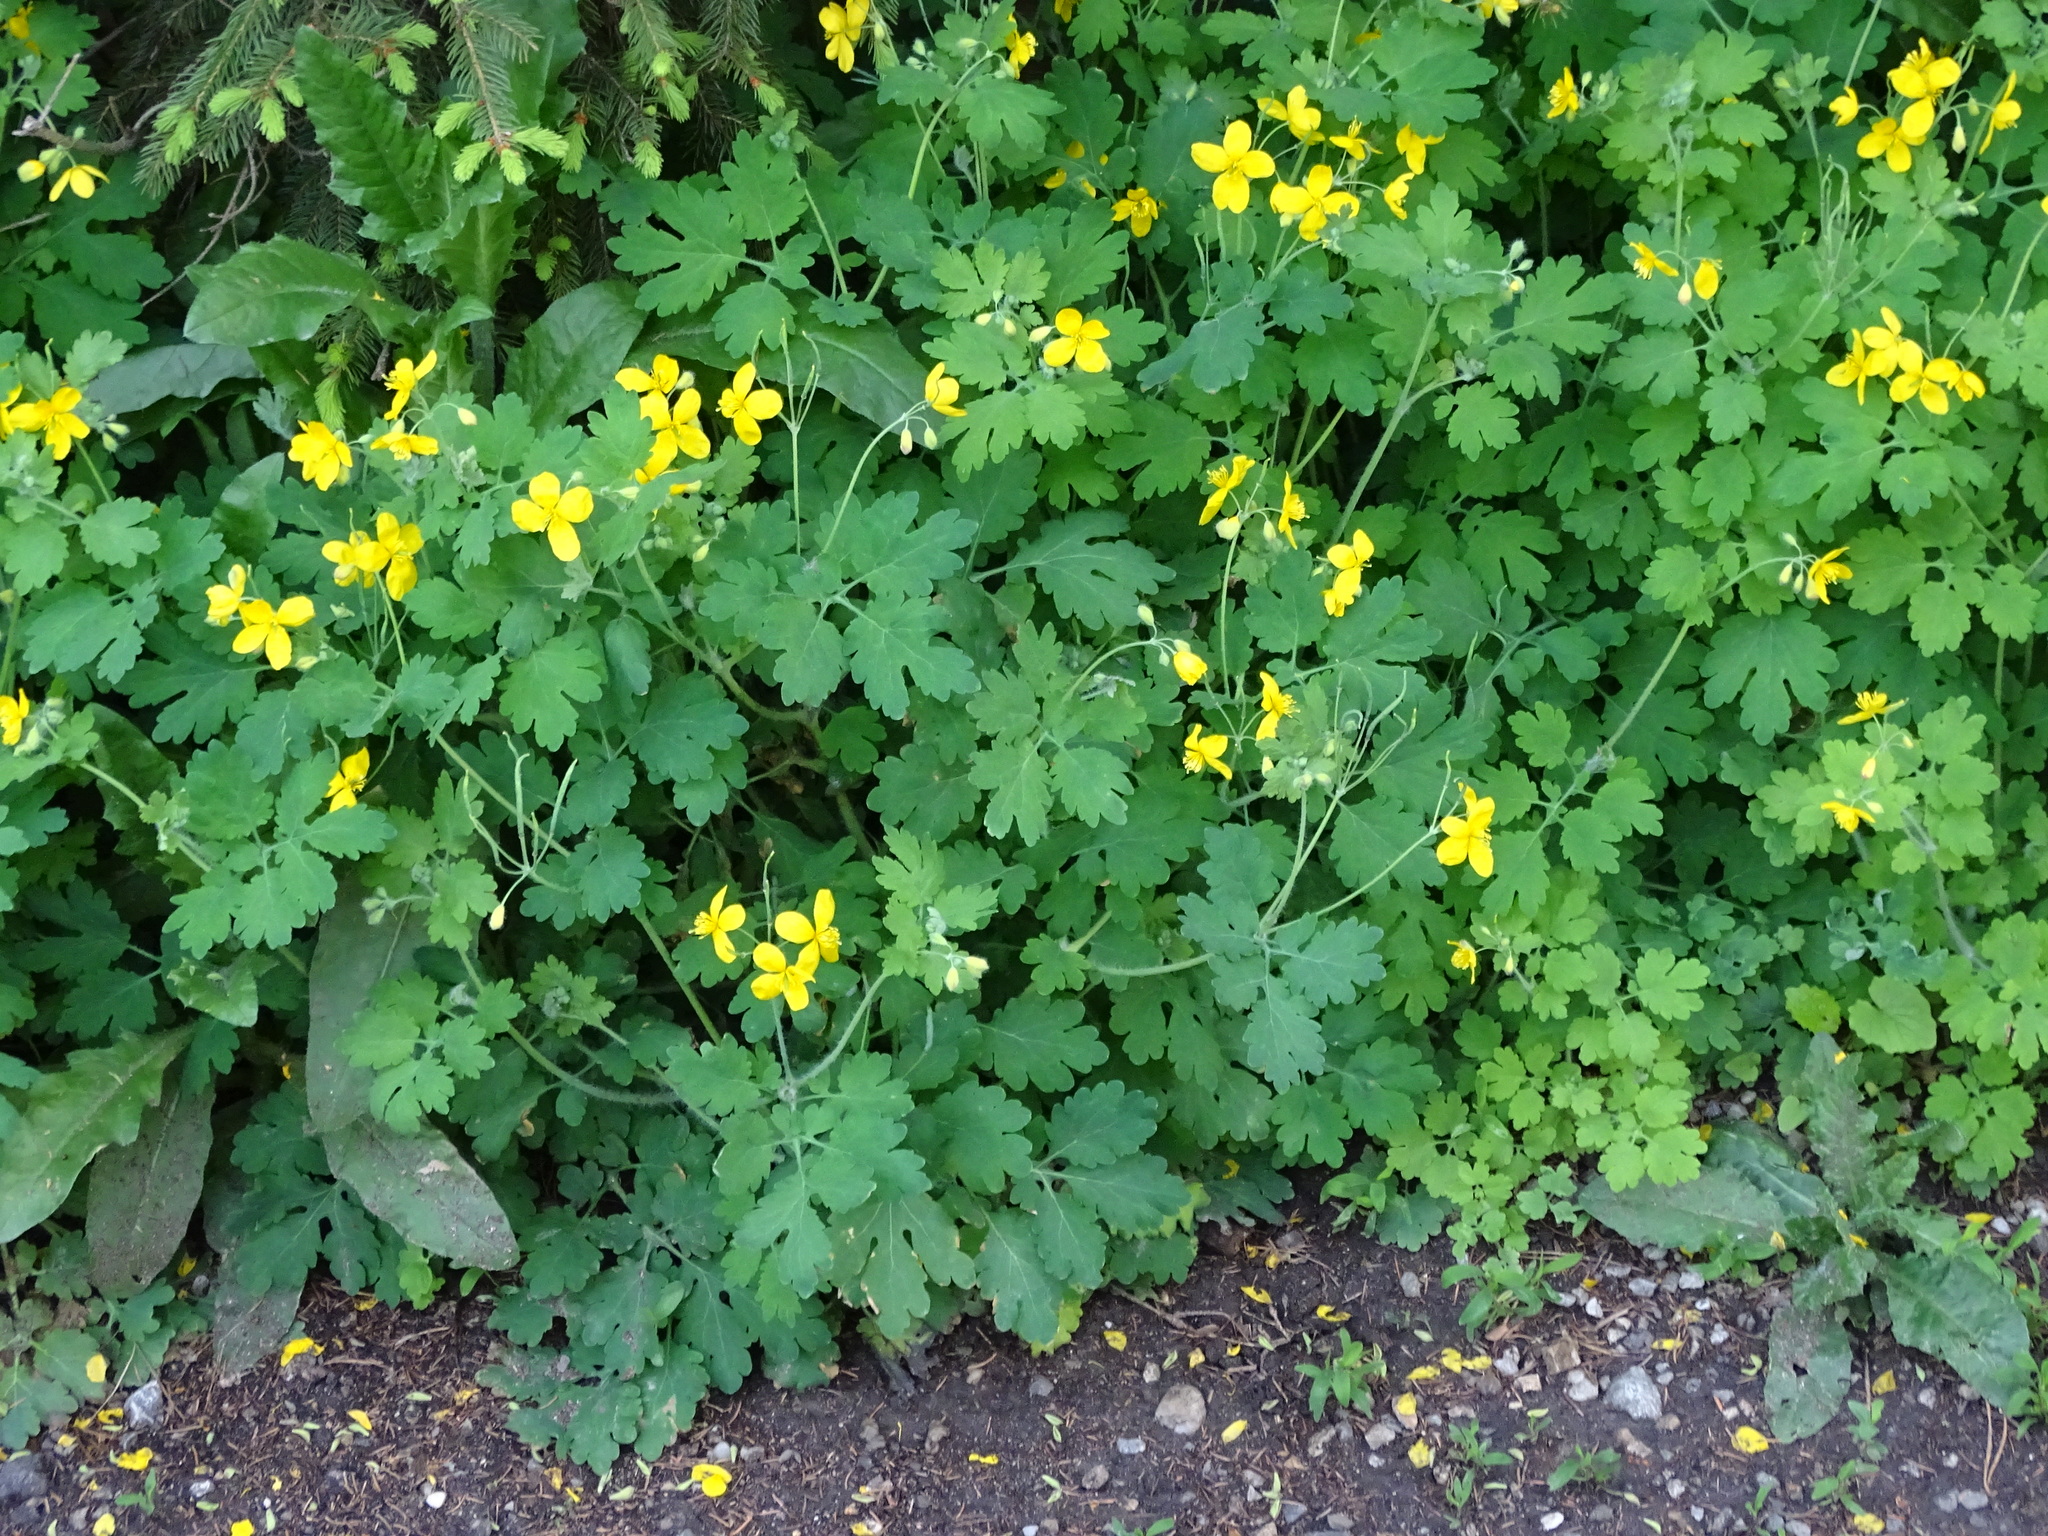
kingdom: Plantae
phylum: Tracheophyta
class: Magnoliopsida
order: Ranunculales
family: Papaveraceae
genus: Chelidonium
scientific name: Chelidonium majus
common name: Greater celandine
